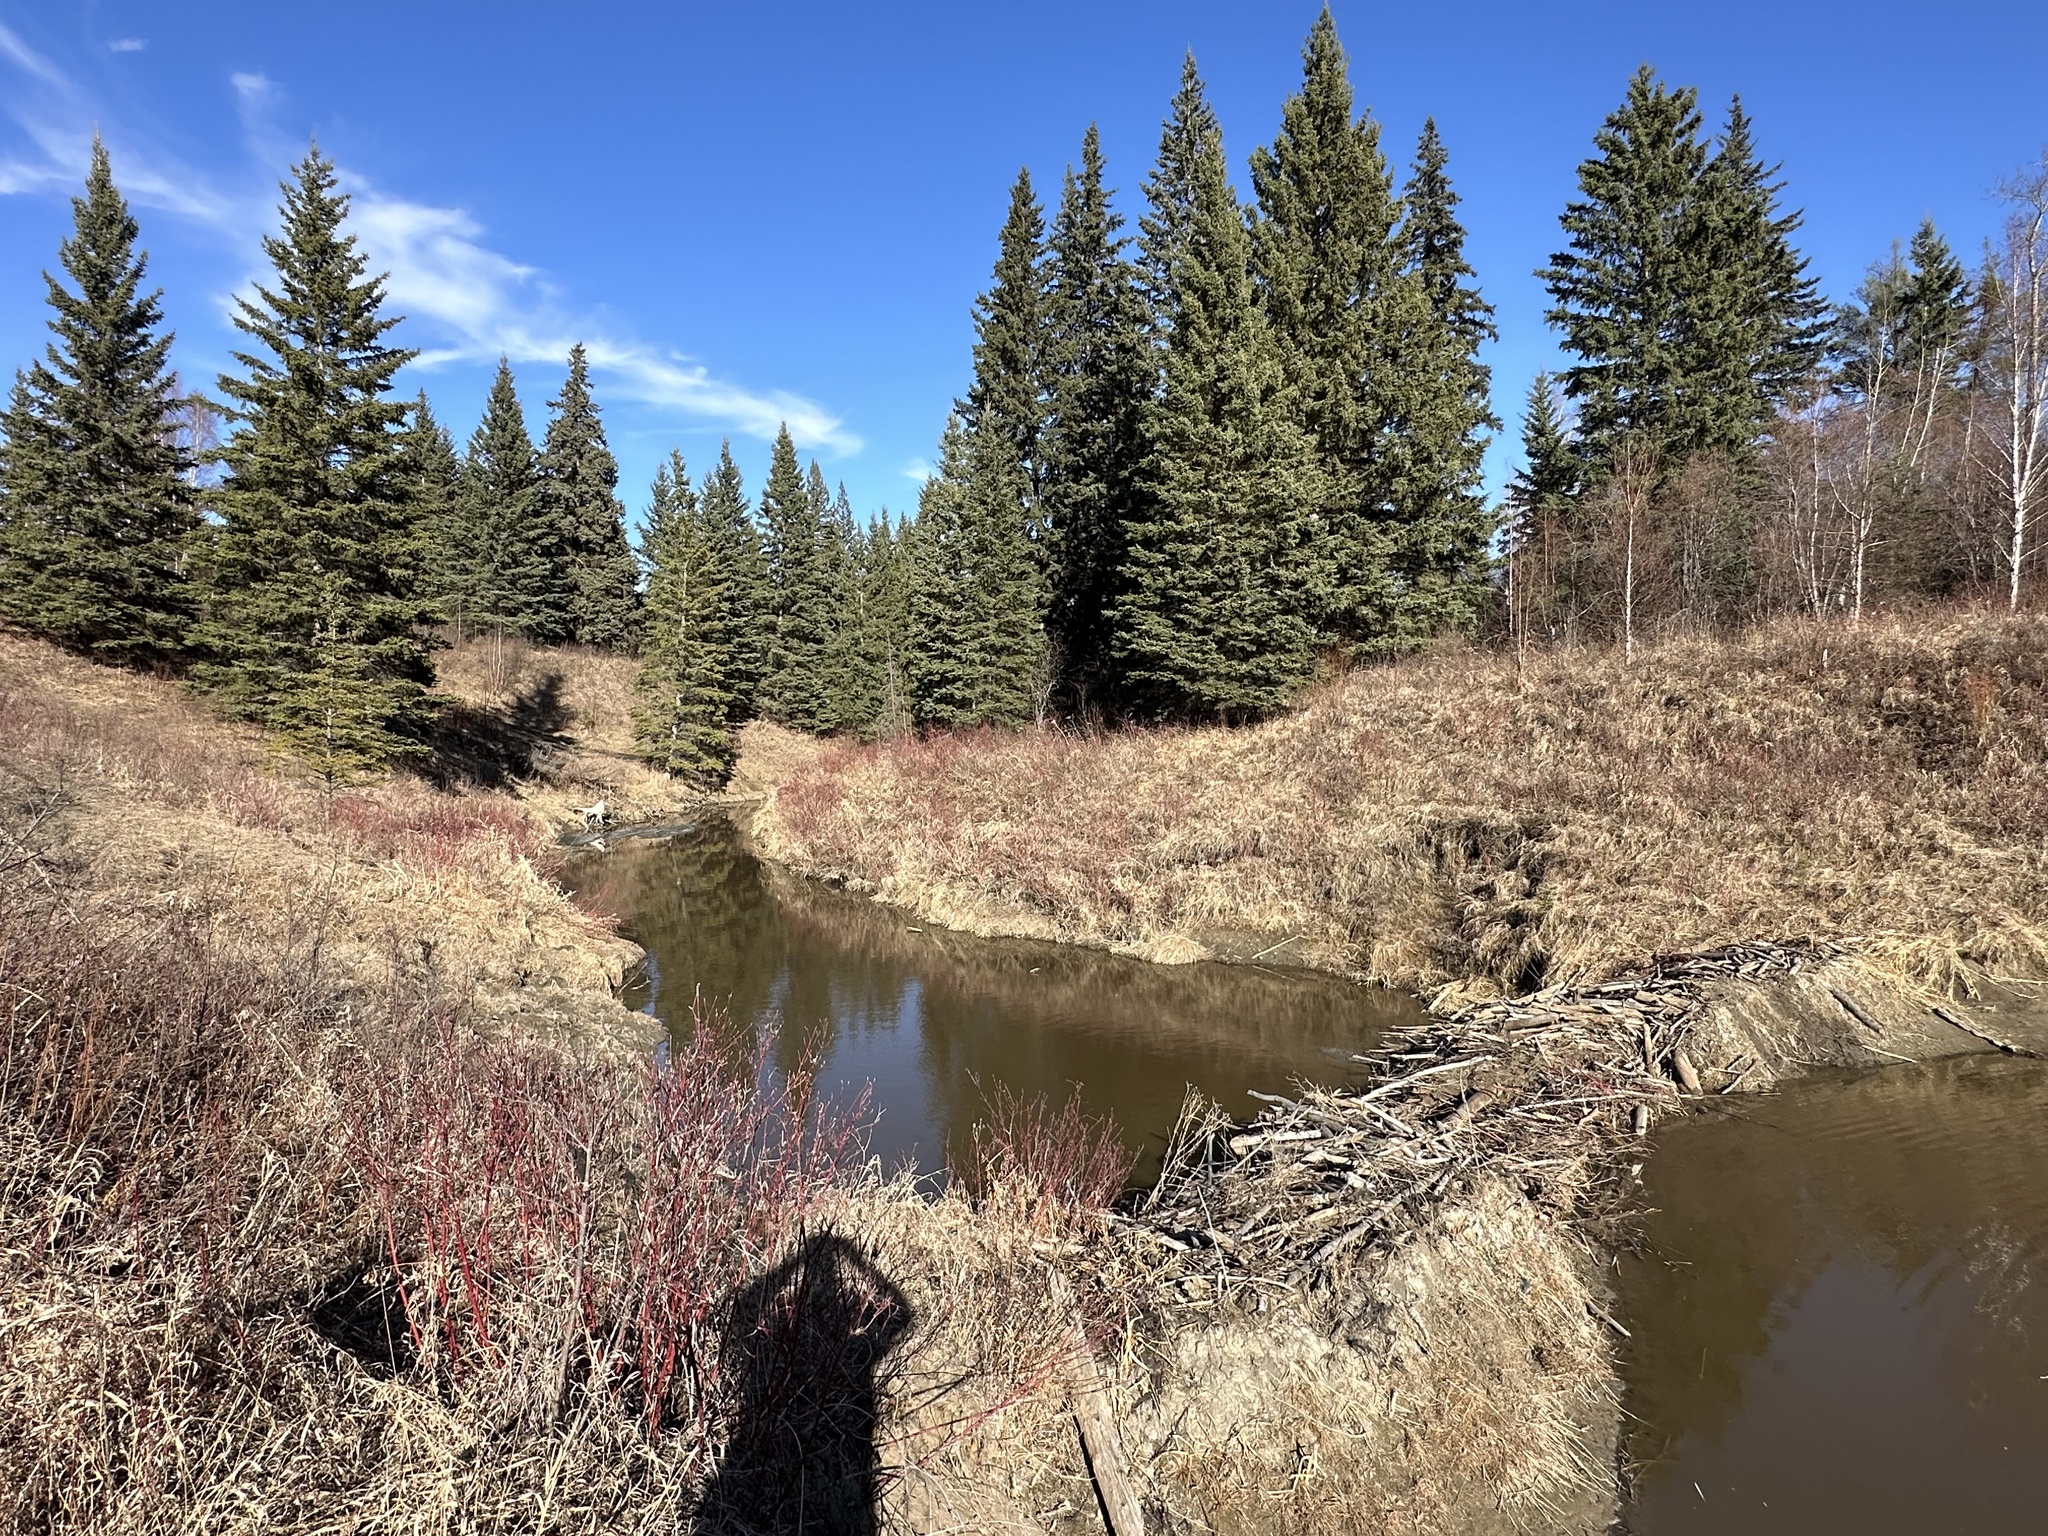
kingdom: Animalia
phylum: Chordata
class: Mammalia
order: Rodentia
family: Castoridae
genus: Castor
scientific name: Castor canadensis
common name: American beaver
